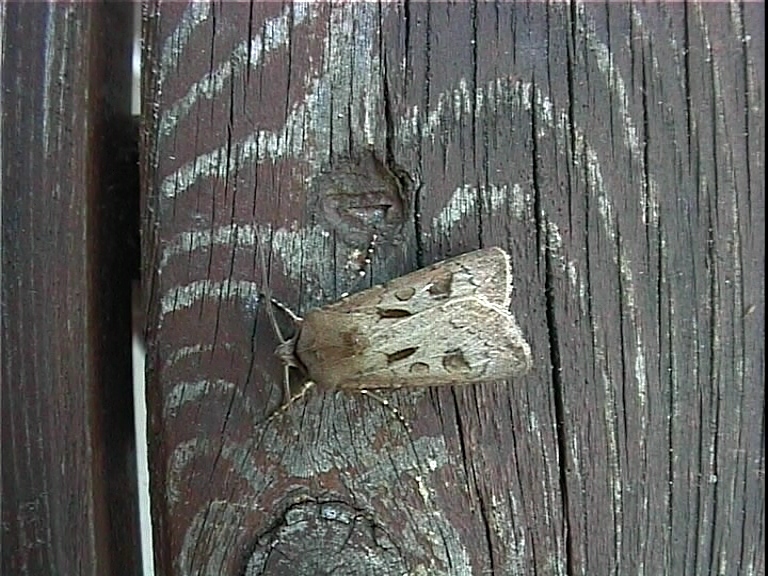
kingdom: Animalia
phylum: Arthropoda
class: Insecta
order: Lepidoptera
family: Noctuidae
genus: Agrotis
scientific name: Agrotis exclamationis
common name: Heart and dart
